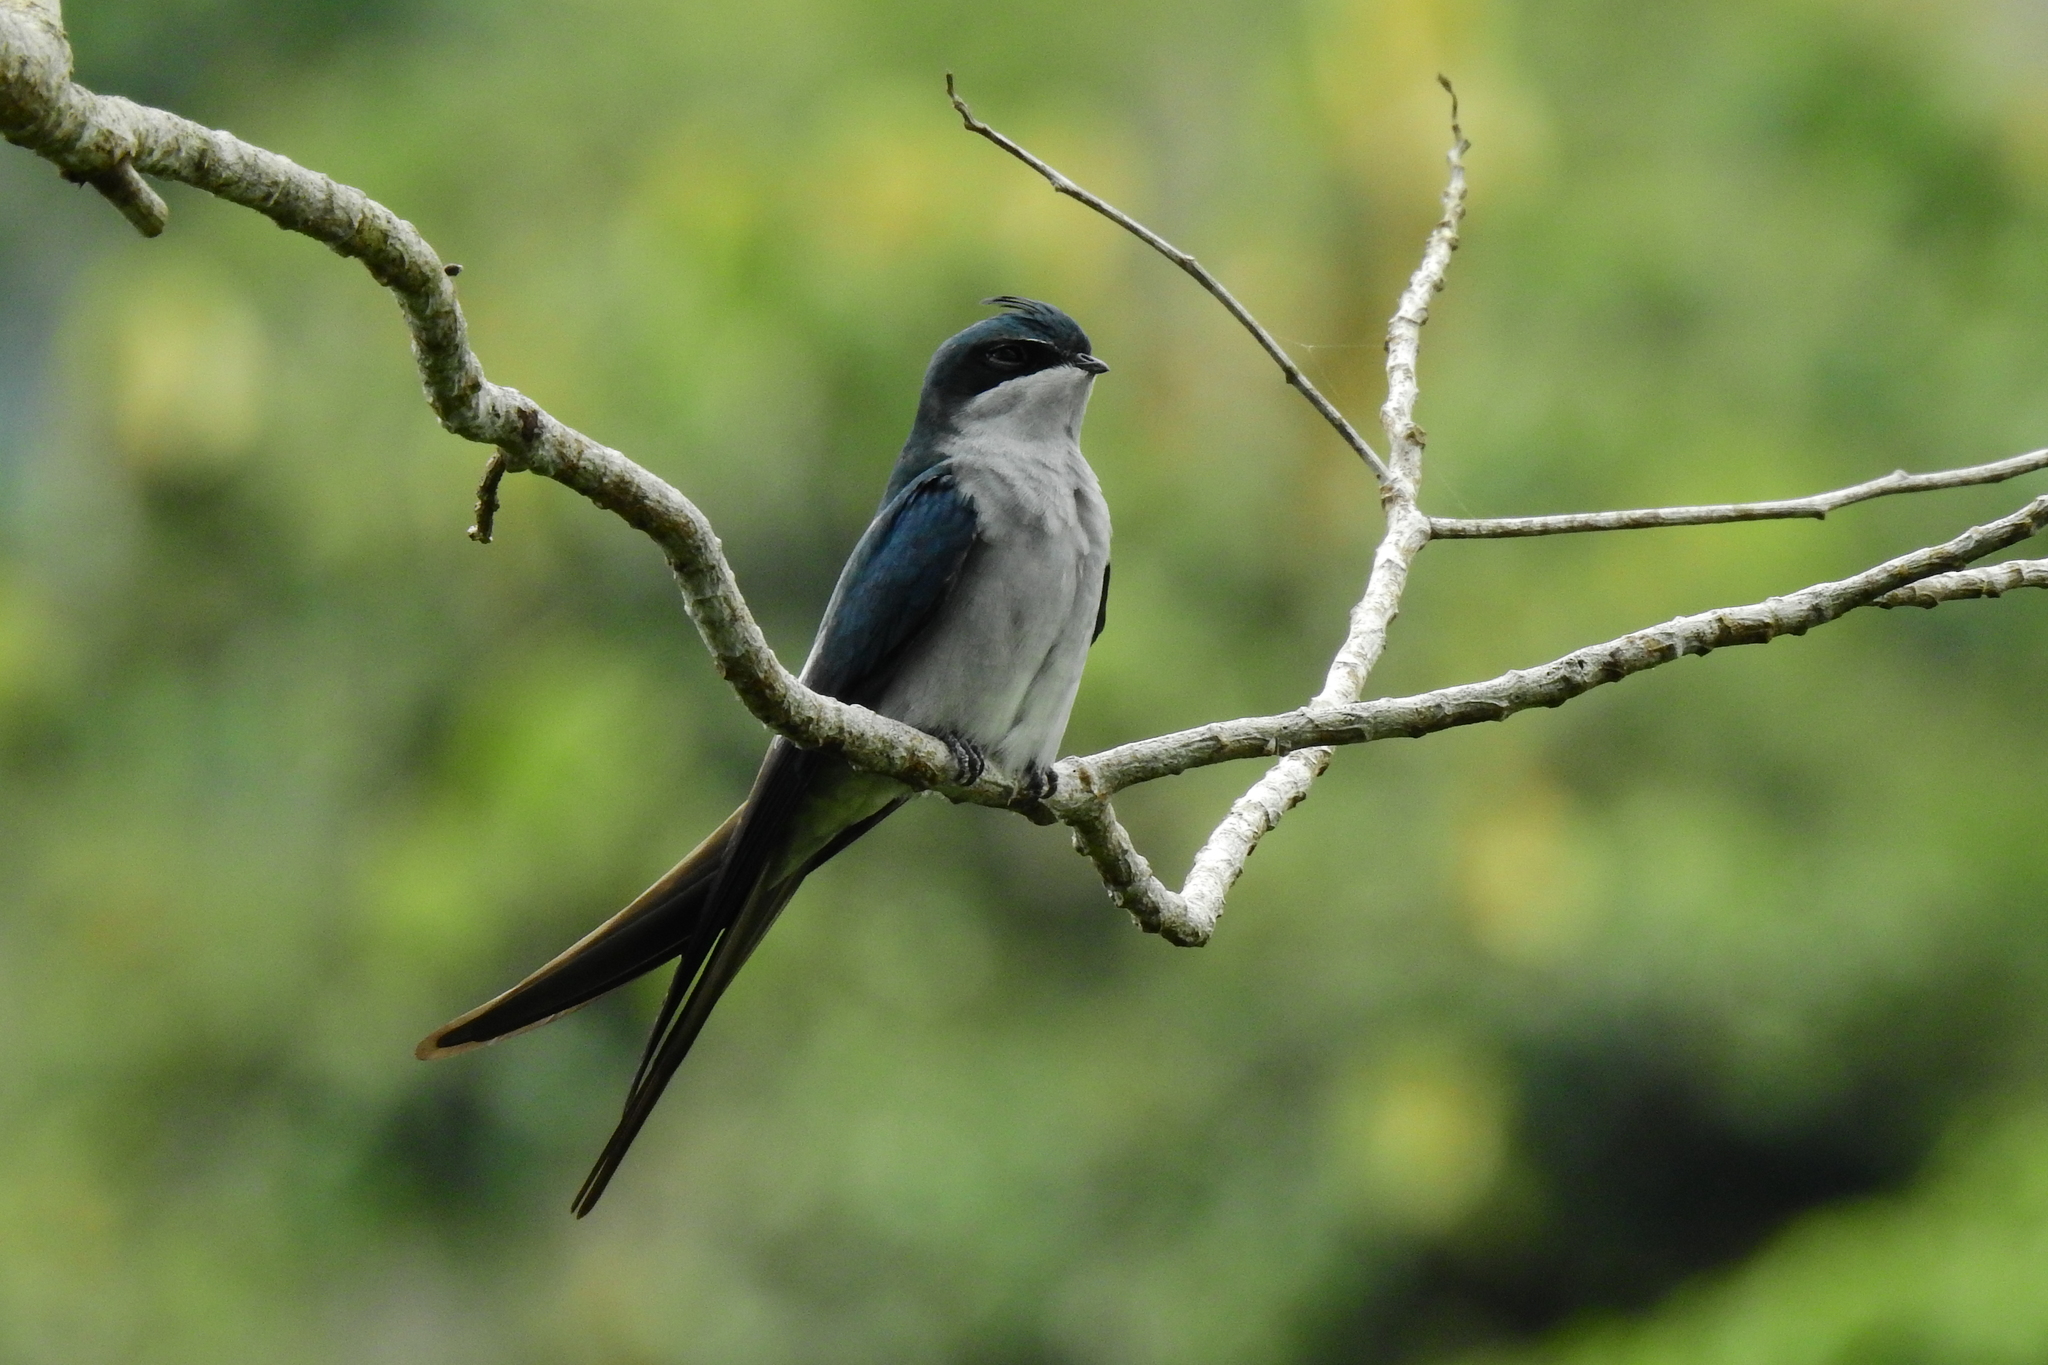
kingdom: Animalia
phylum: Chordata
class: Aves
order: Apodiformes
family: Hemiprocnidae
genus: Hemiprocne
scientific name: Hemiprocne longipennis
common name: Grey-rumped treeswift
